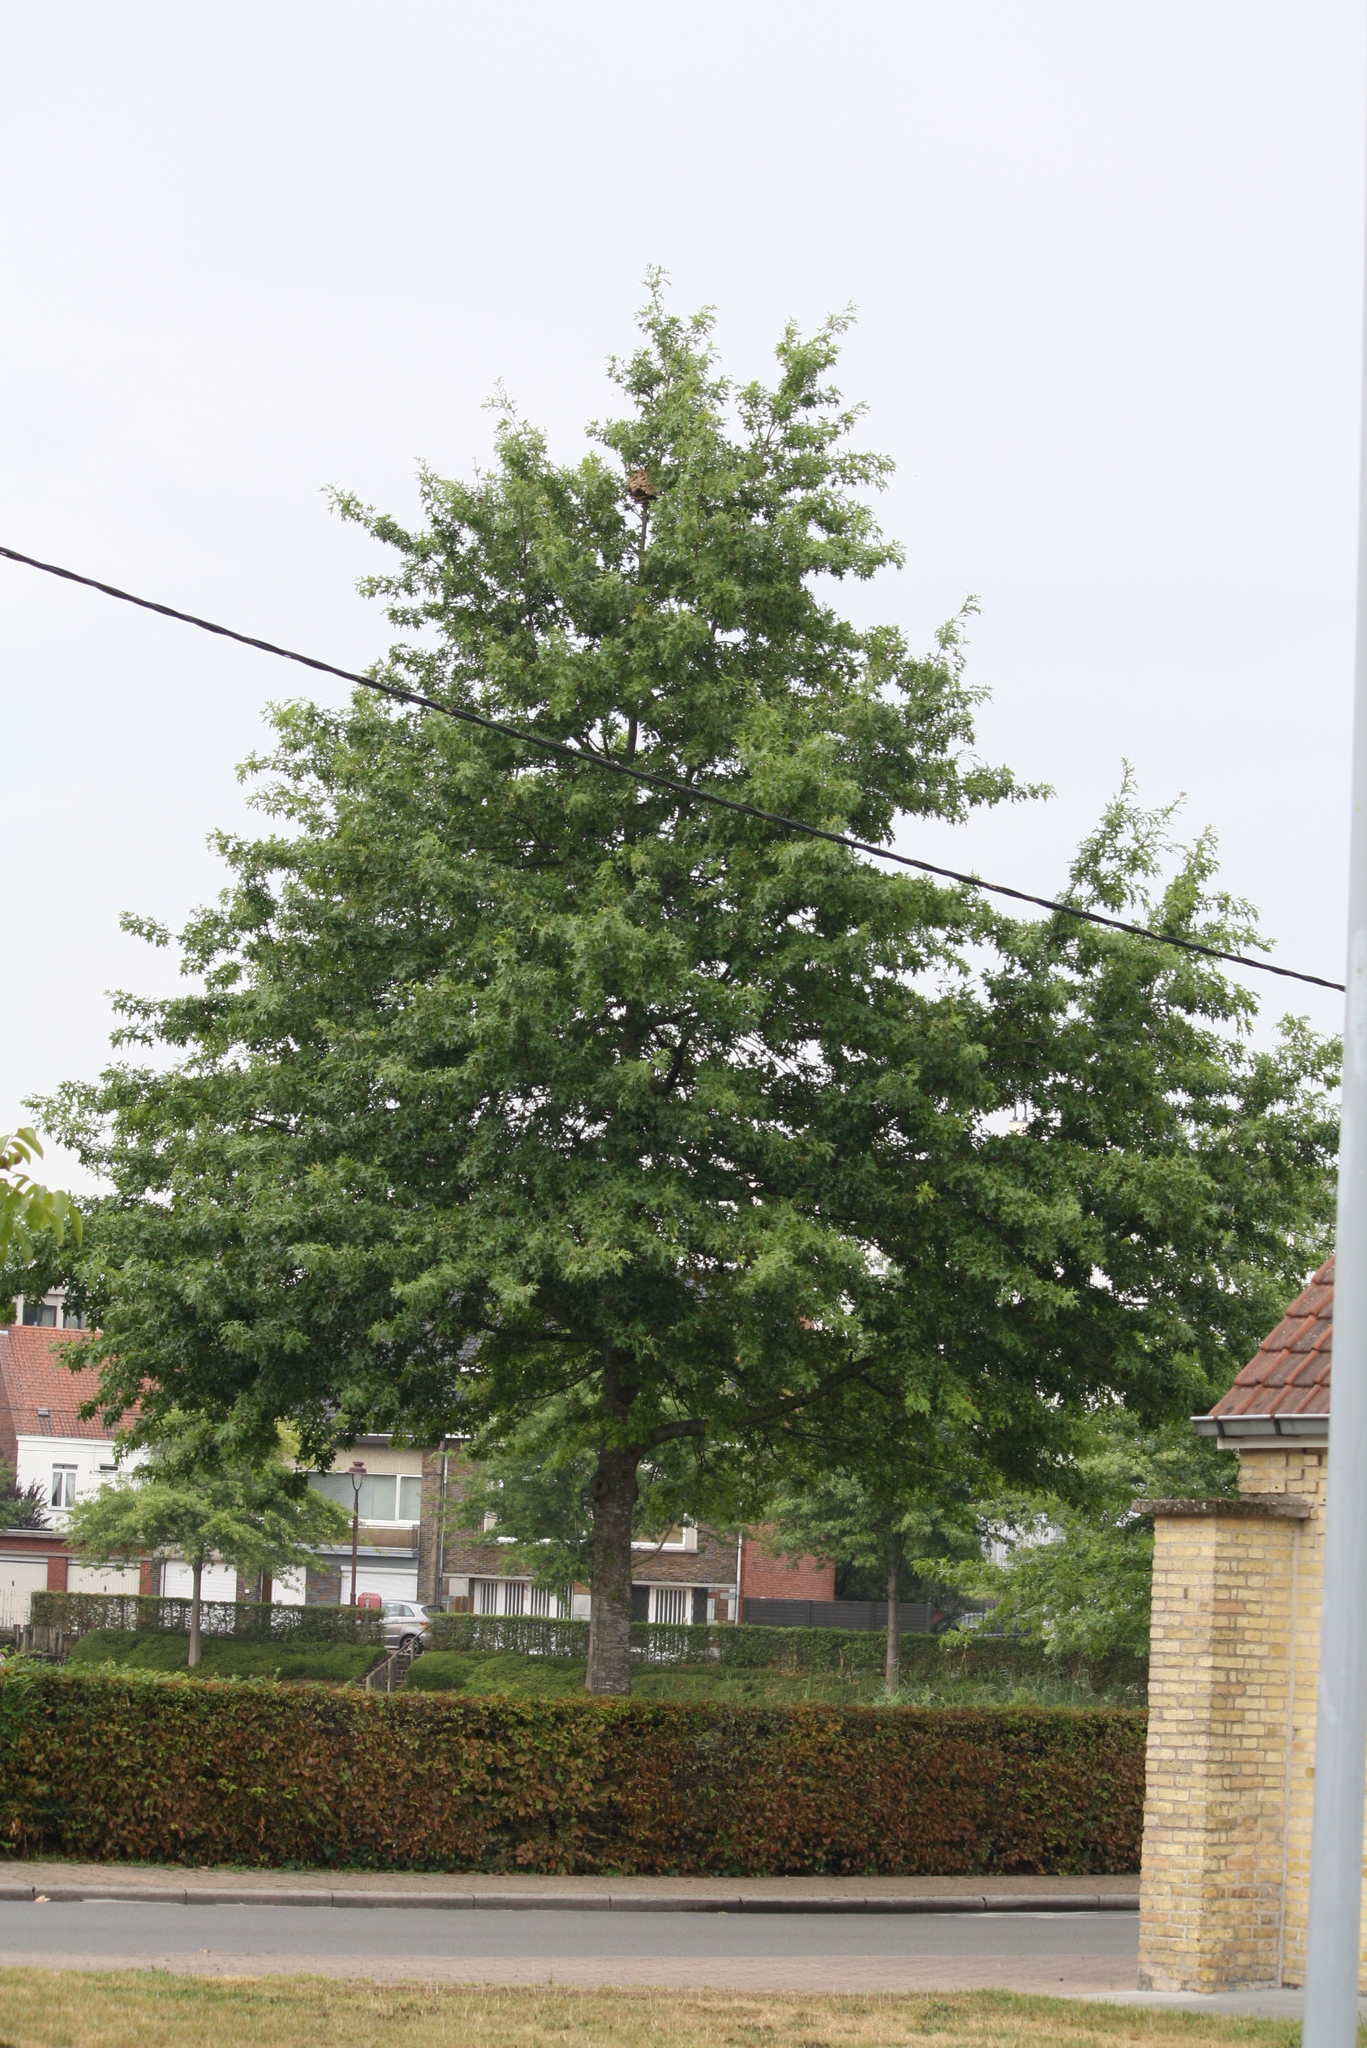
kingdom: Animalia
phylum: Arthropoda
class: Insecta
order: Hymenoptera
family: Vespidae
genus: Vespa
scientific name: Vespa velutina
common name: Asian hornet
